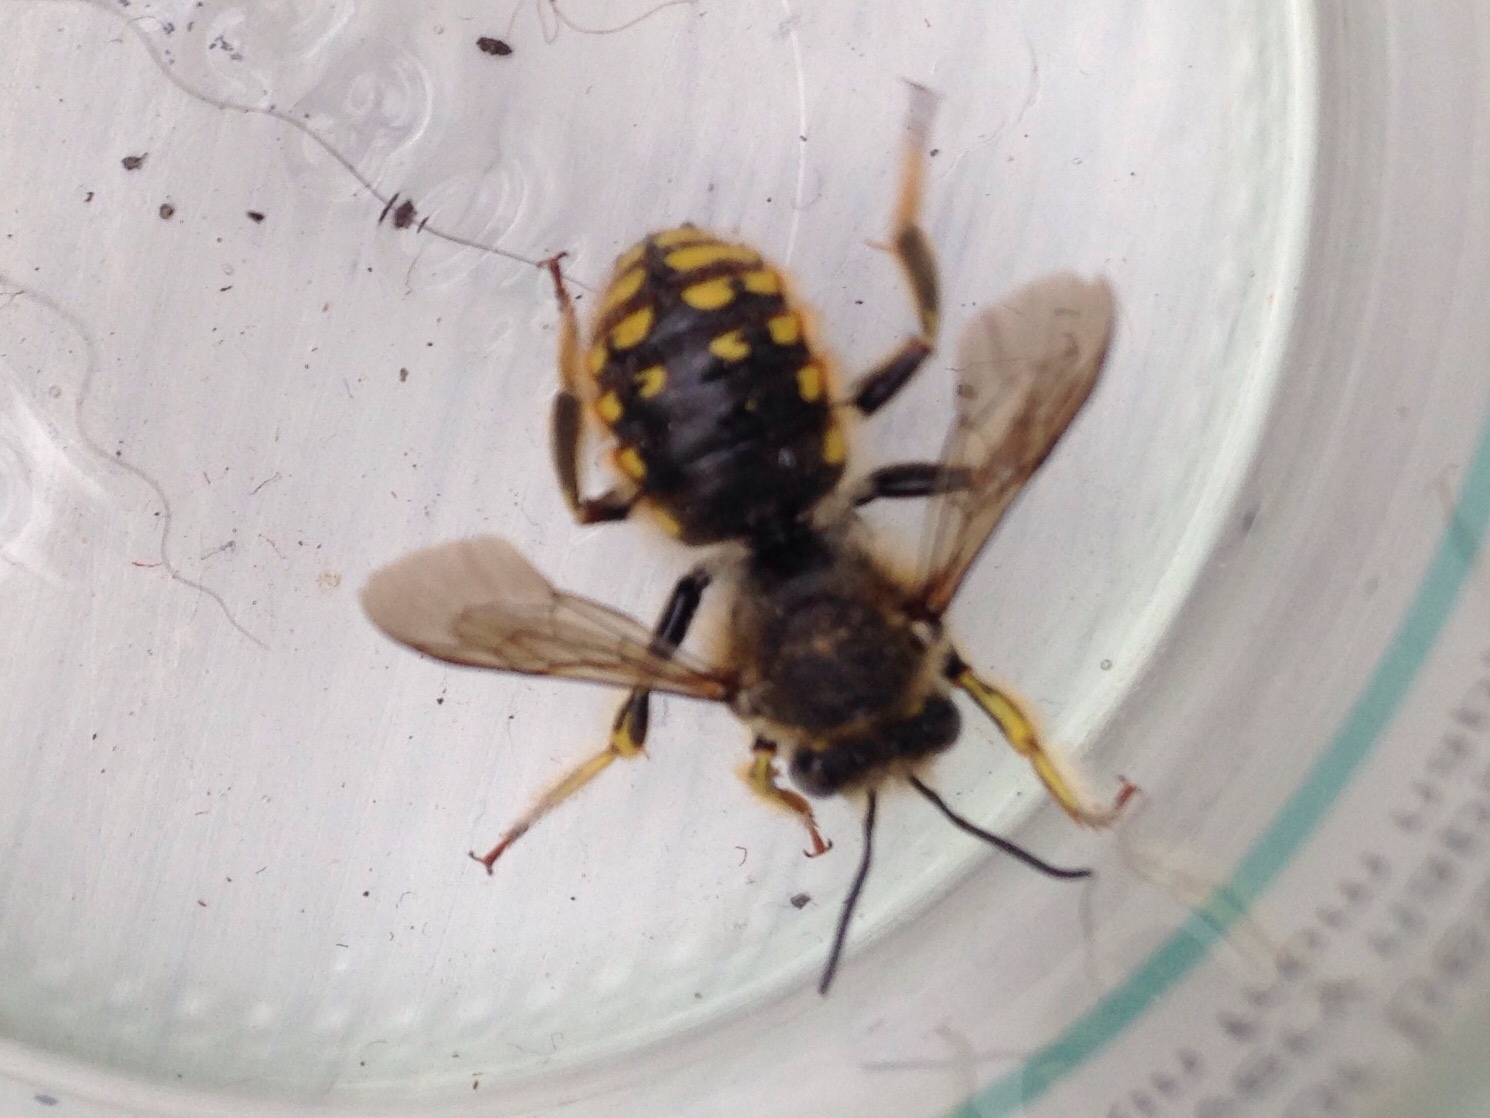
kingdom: Animalia
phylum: Arthropoda
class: Insecta
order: Hymenoptera
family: Megachilidae
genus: Anthidium
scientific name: Anthidium manicatum
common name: Wool carder bee
